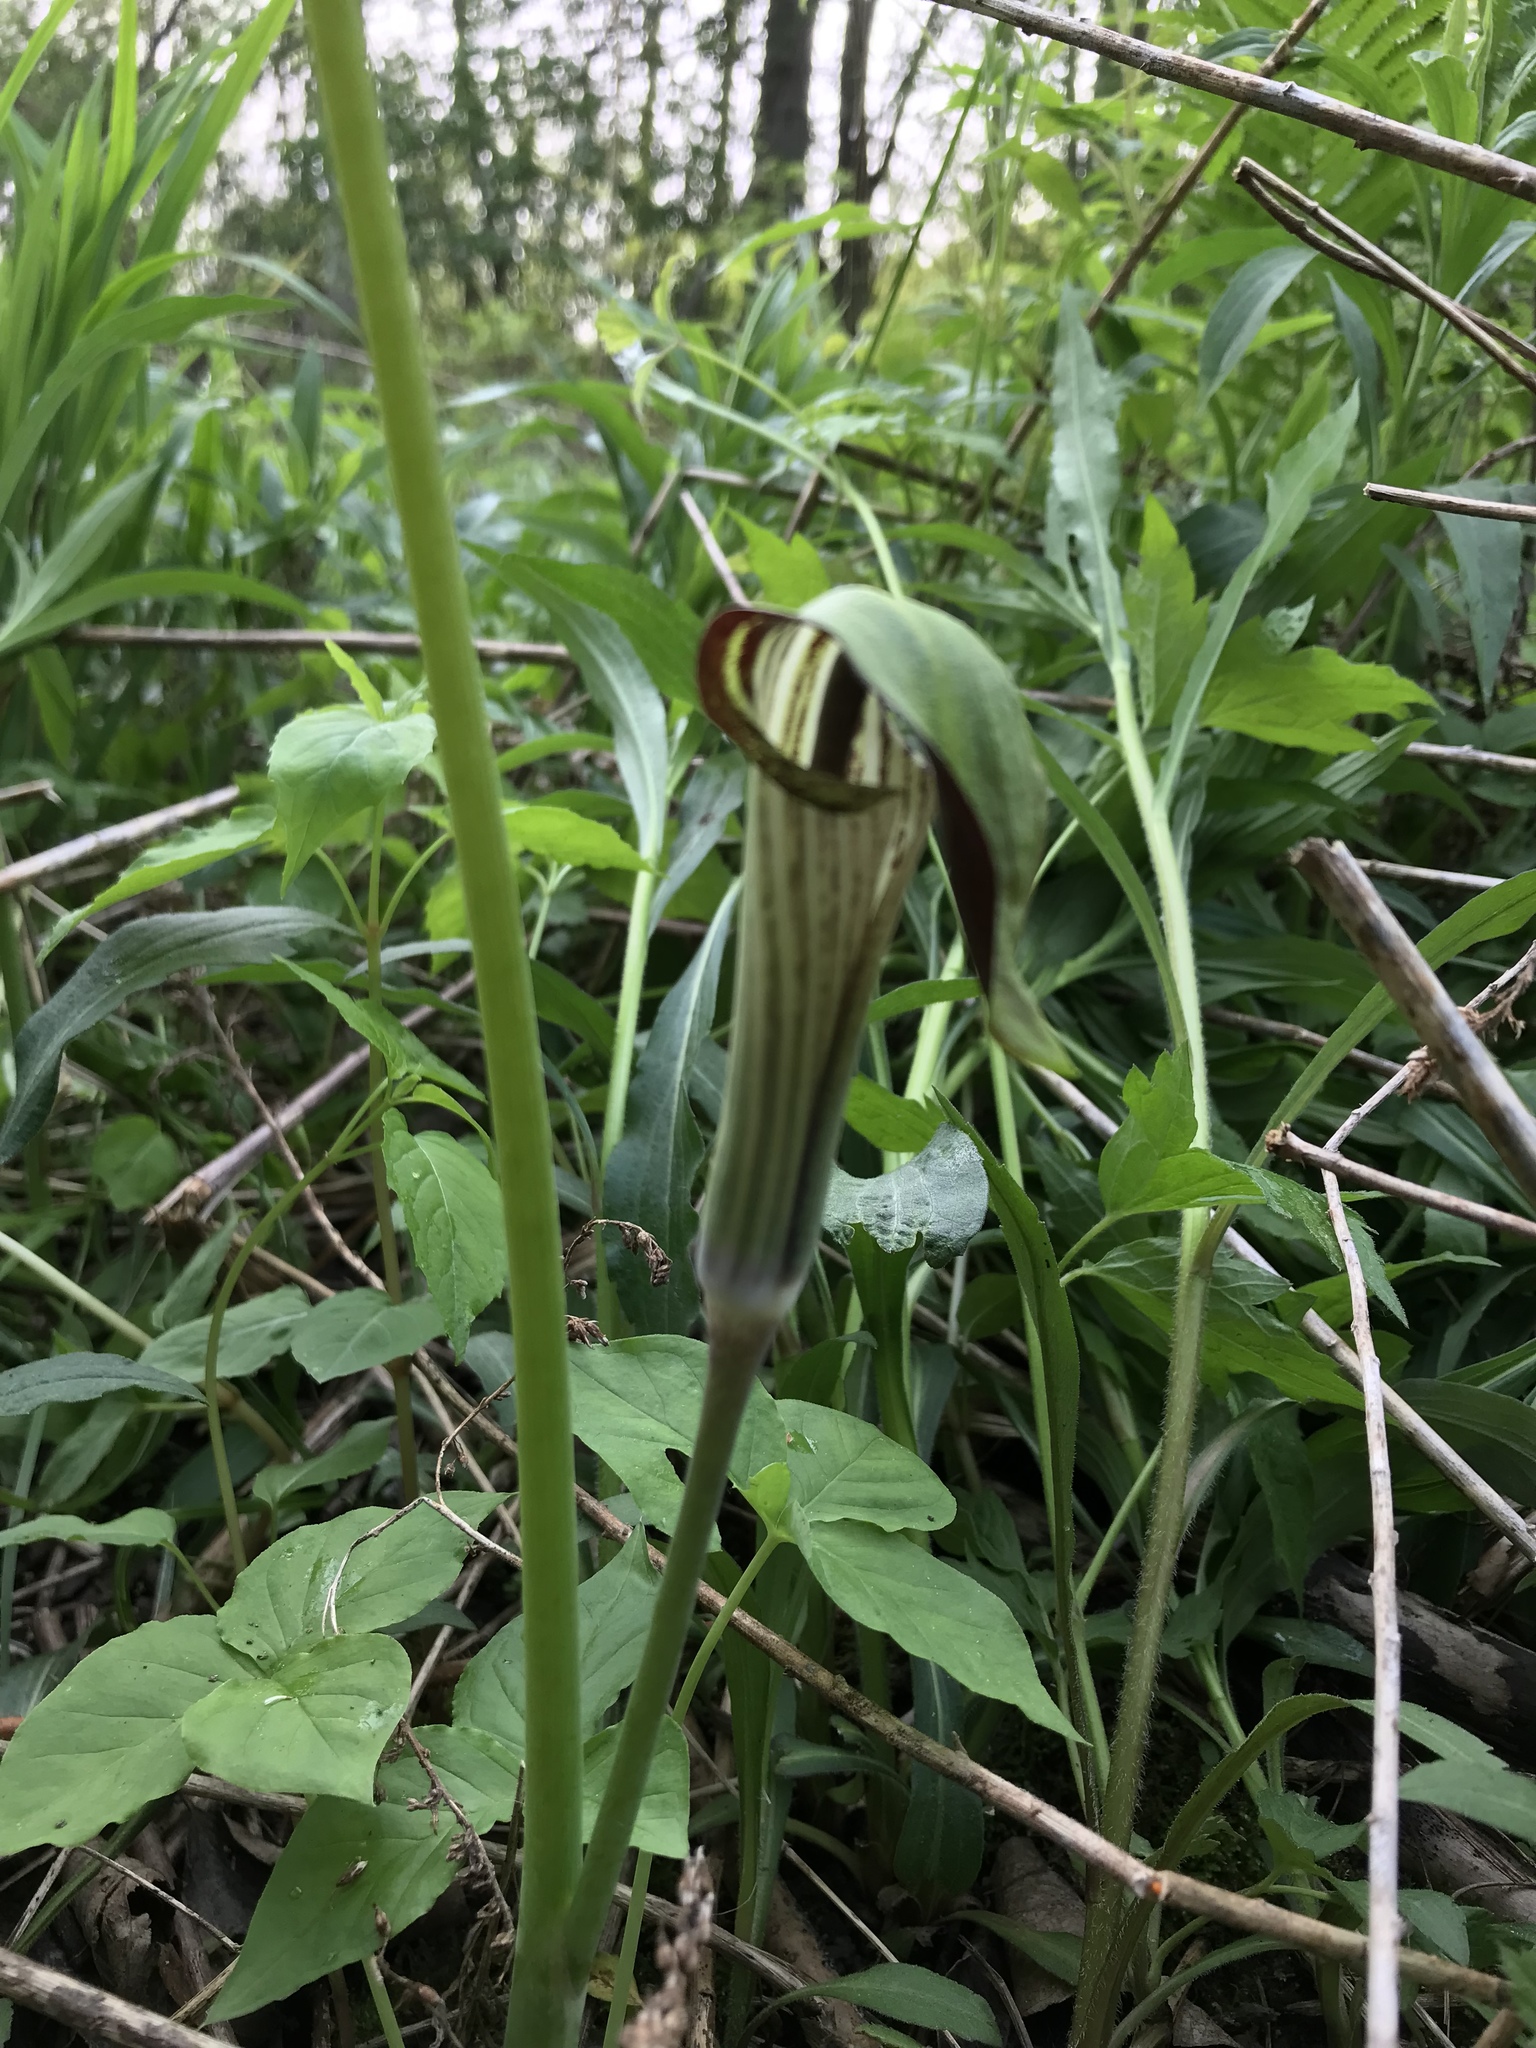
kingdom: Plantae
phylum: Tracheophyta
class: Liliopsida
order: Alismatales
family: Araceae
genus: Arisaema
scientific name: Arisaema triphyllum
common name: Jack-in-the-pulpit
